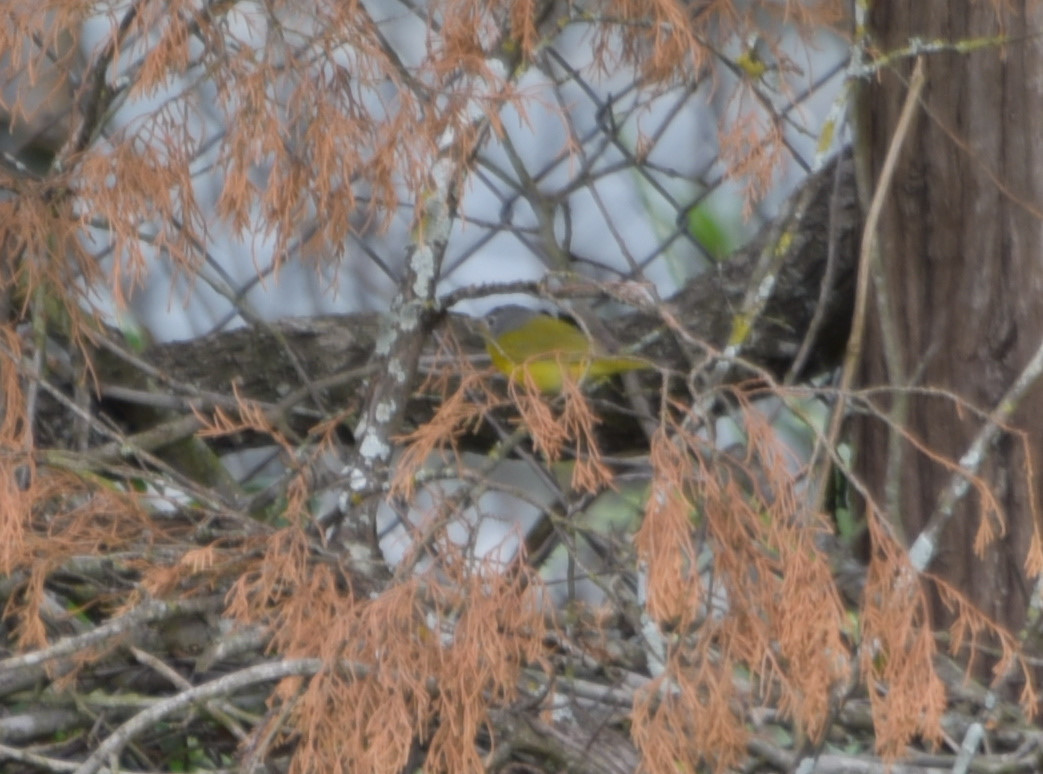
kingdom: Animalia
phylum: Chordata
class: Aves
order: Passeriformes
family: Parulidae
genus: Leiothlypis
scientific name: Leiothlypis ruficapilla
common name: Nashville warbler
